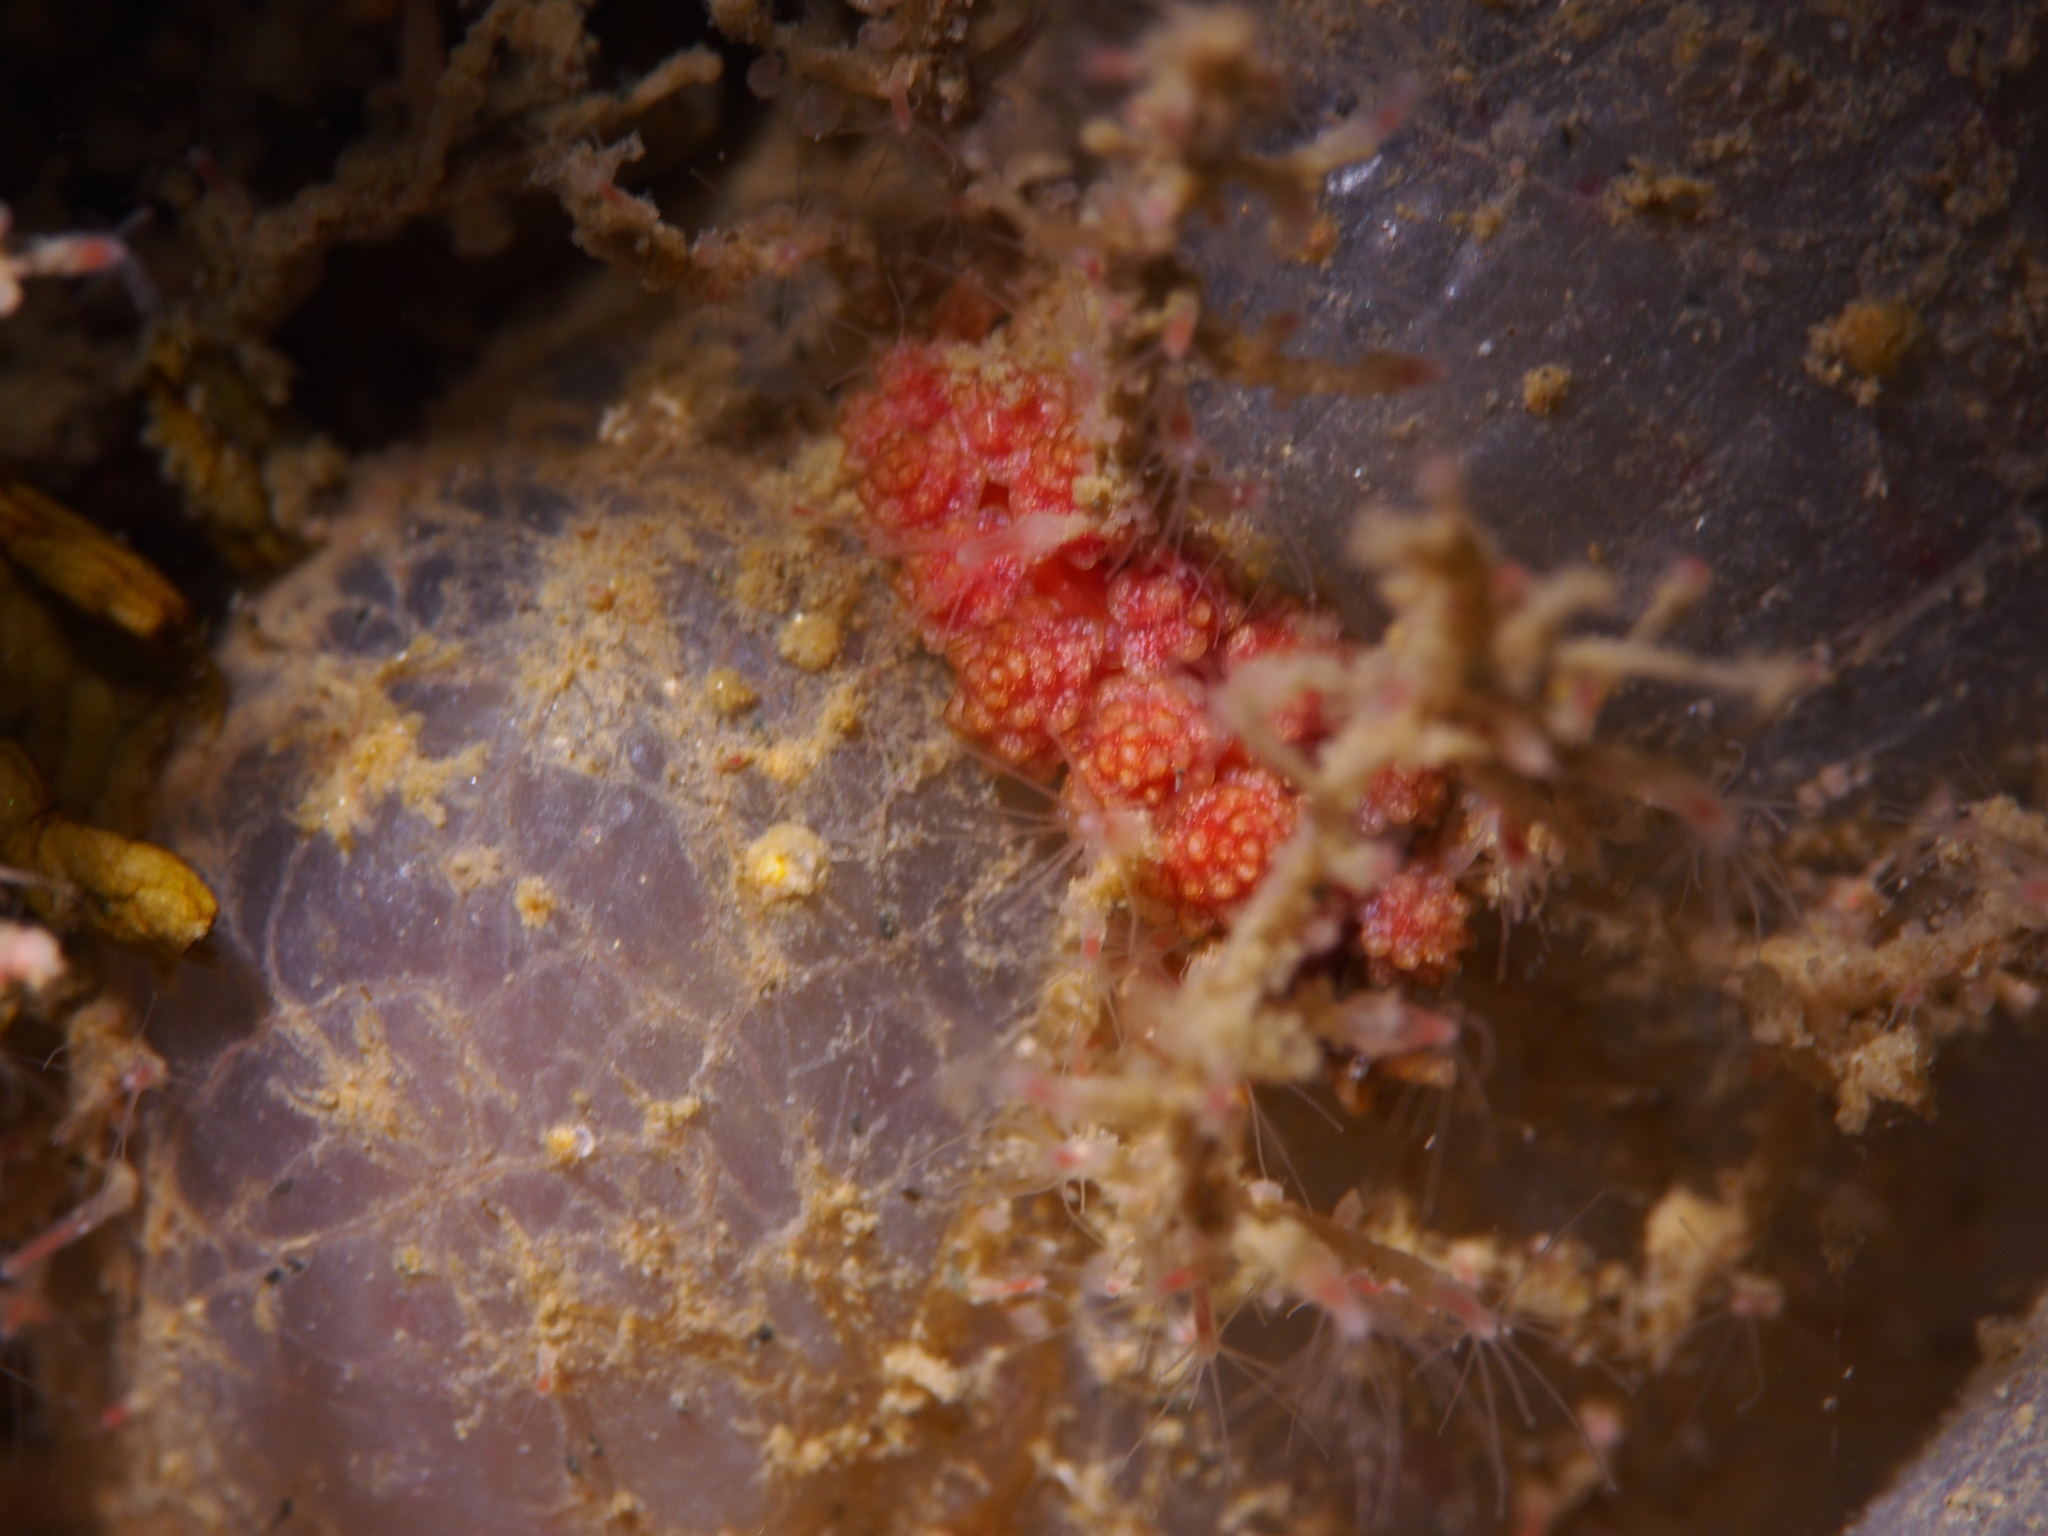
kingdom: Animalia
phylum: Mollusca
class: Gastropoda
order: Nudibranchia
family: Dotidae
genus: Doto
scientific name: Doto fragilis
